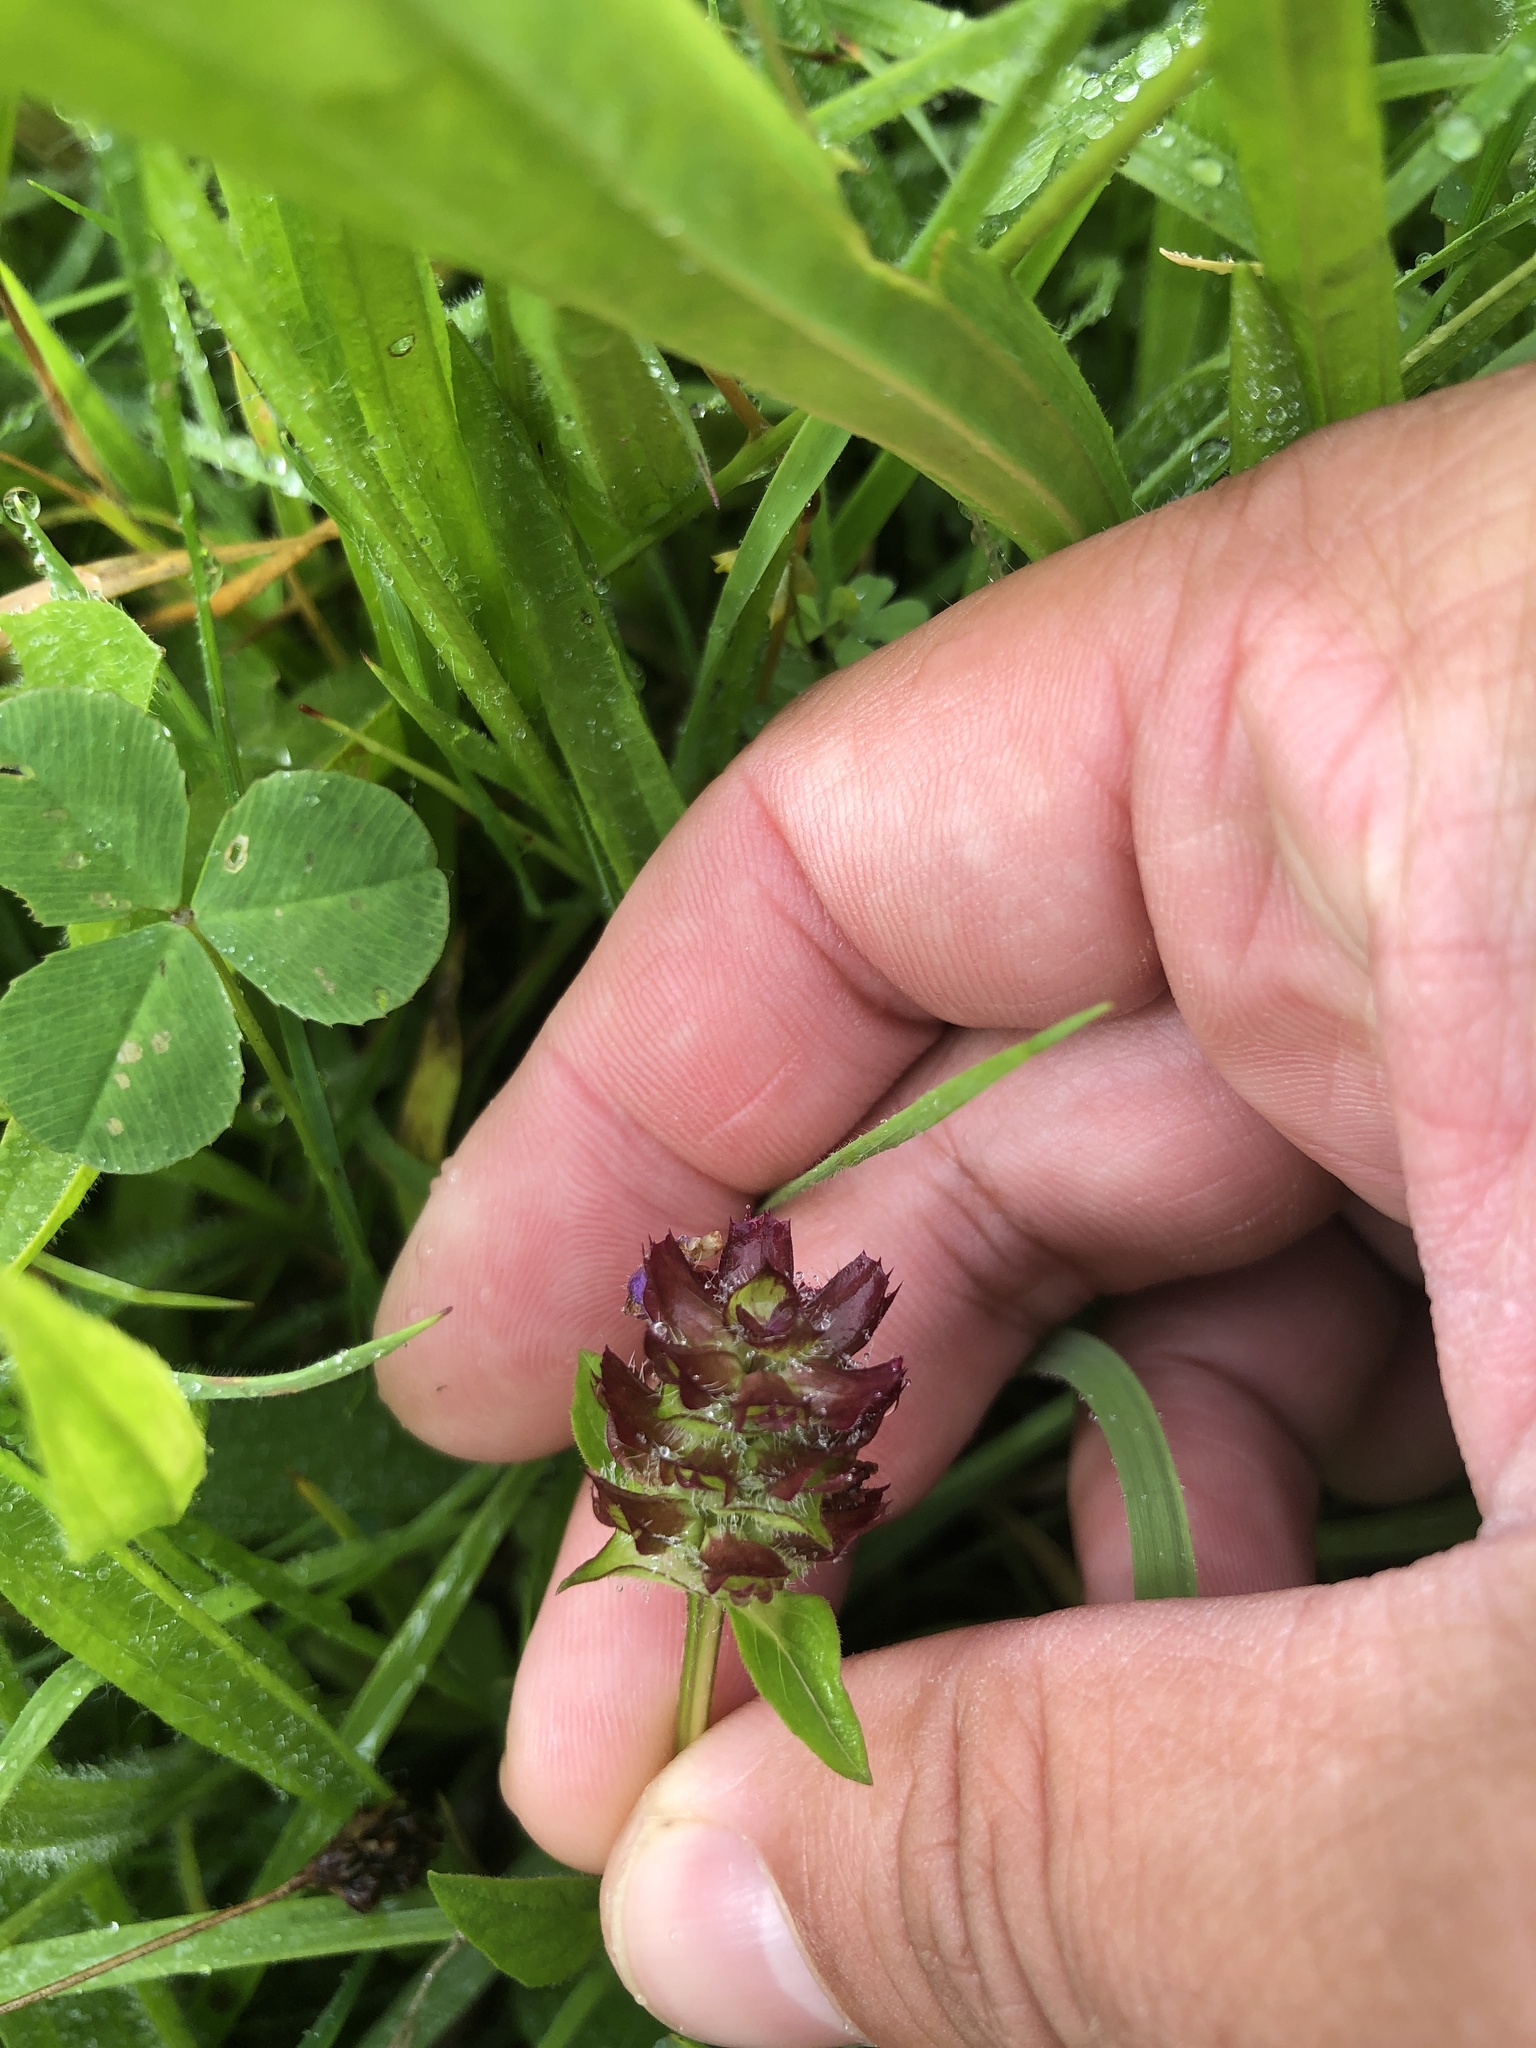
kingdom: Plantae
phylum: Tracheophyta
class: Magnoliopsida
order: Lamiales
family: Lamiaceae
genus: Prunella
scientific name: Prunella vulgaris
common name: Heal-all
